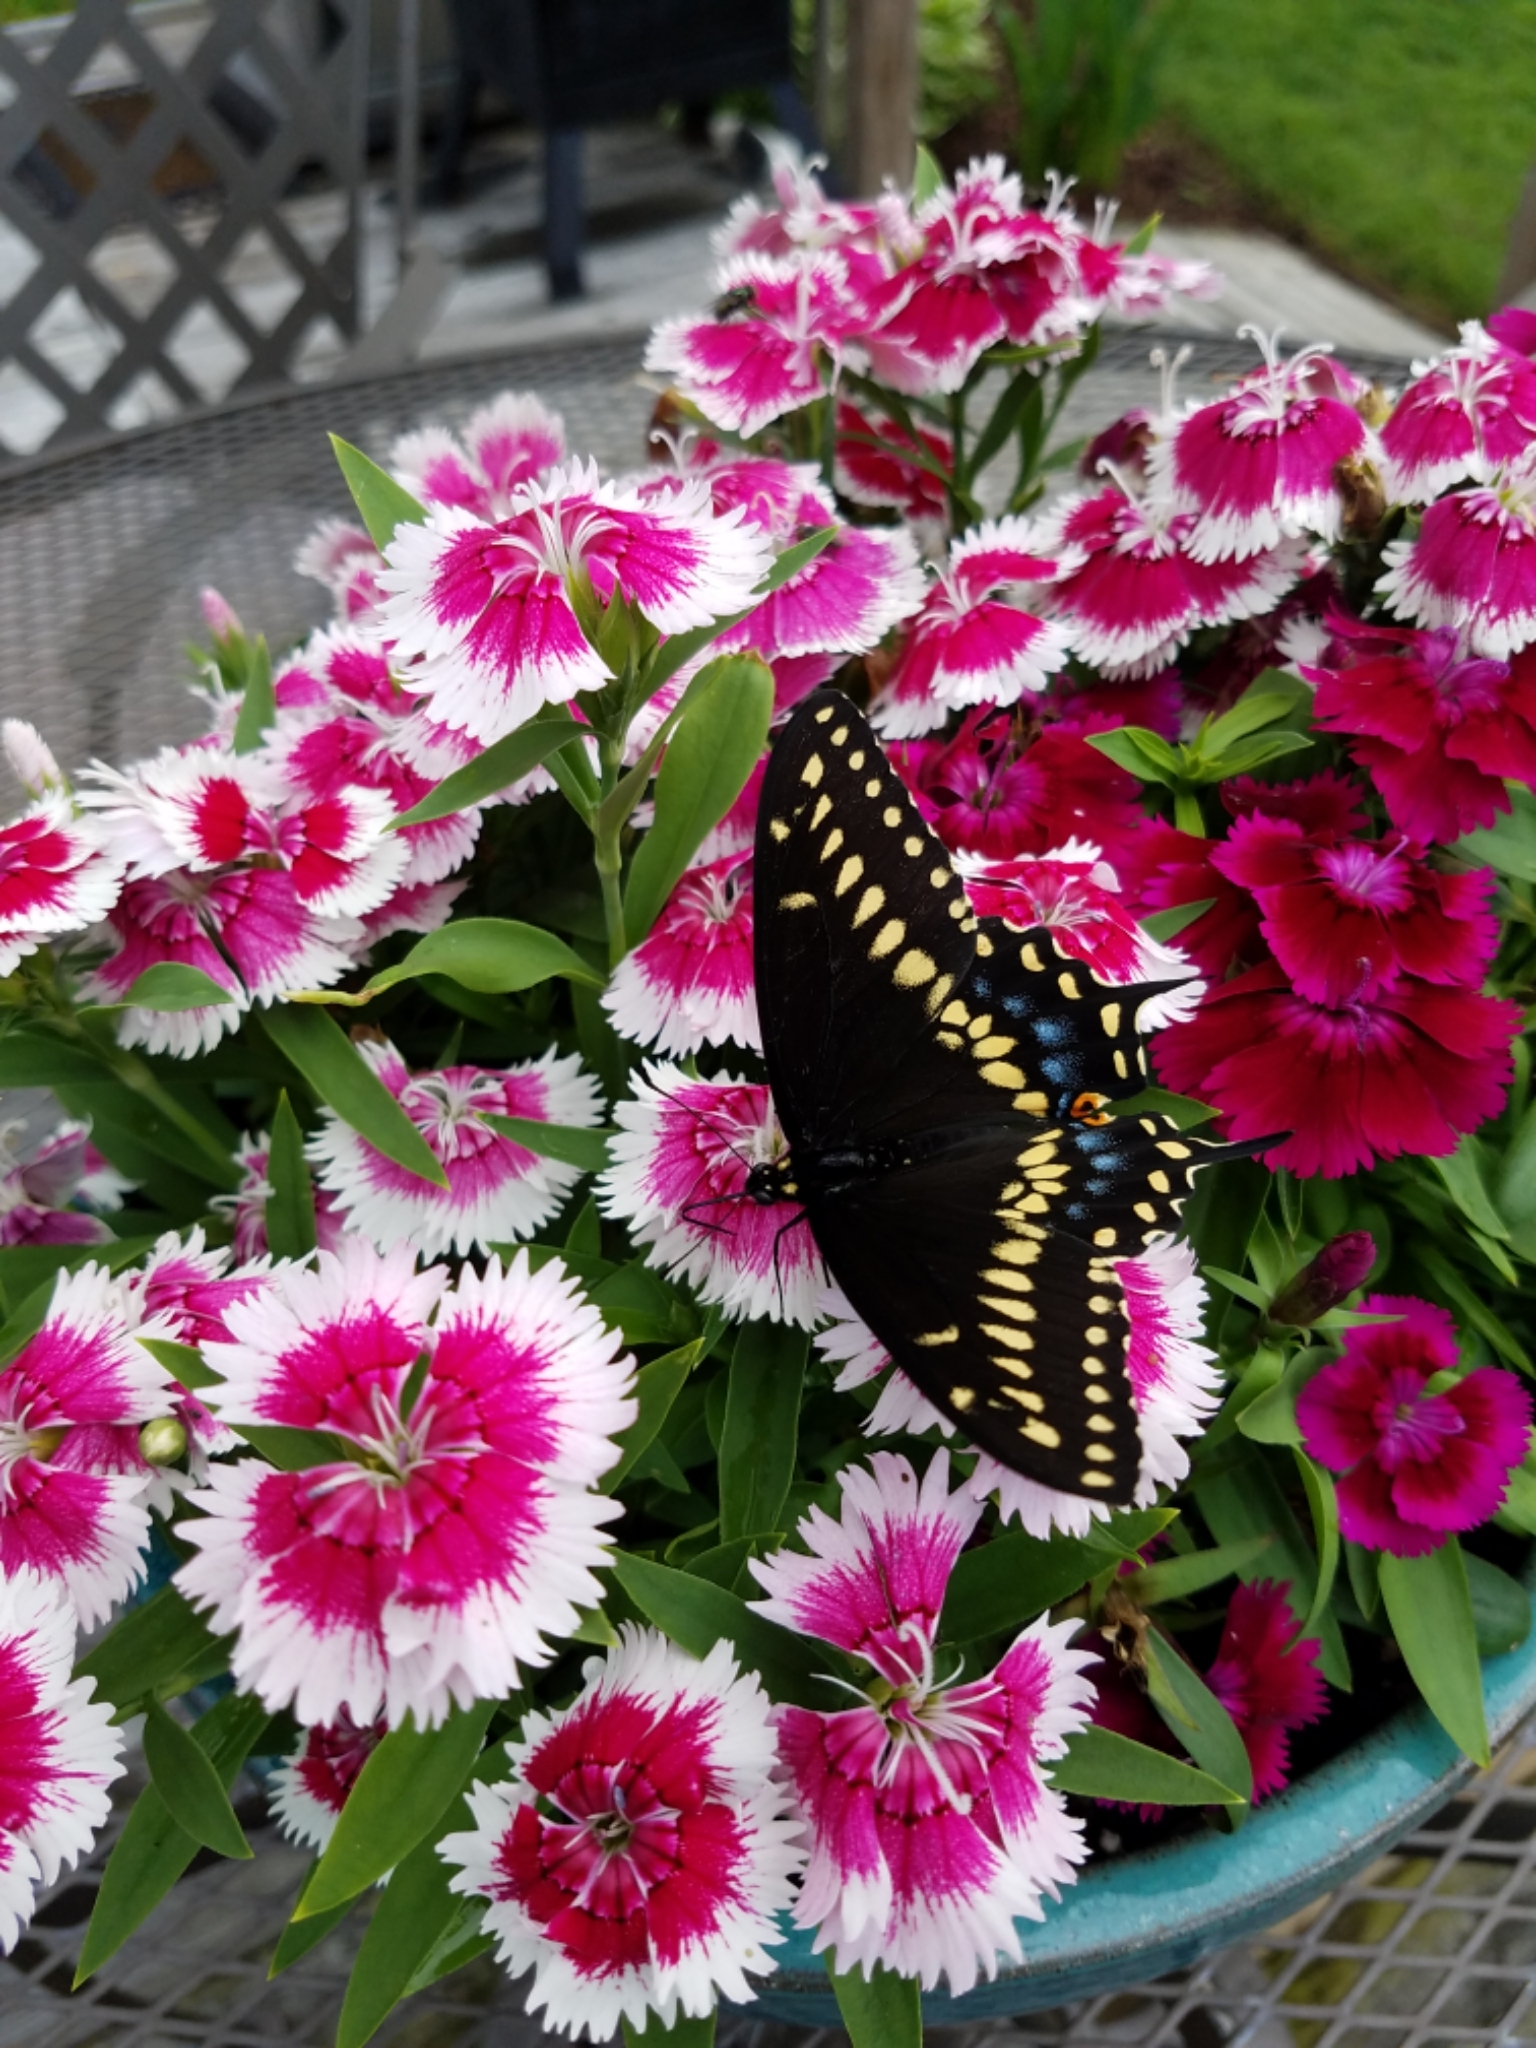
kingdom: Animalia
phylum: Arthropoda
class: Insecta
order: Lepidoptera
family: Papilionidae
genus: Papilio
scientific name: Papilio polyxenes
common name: Black swallowtail
